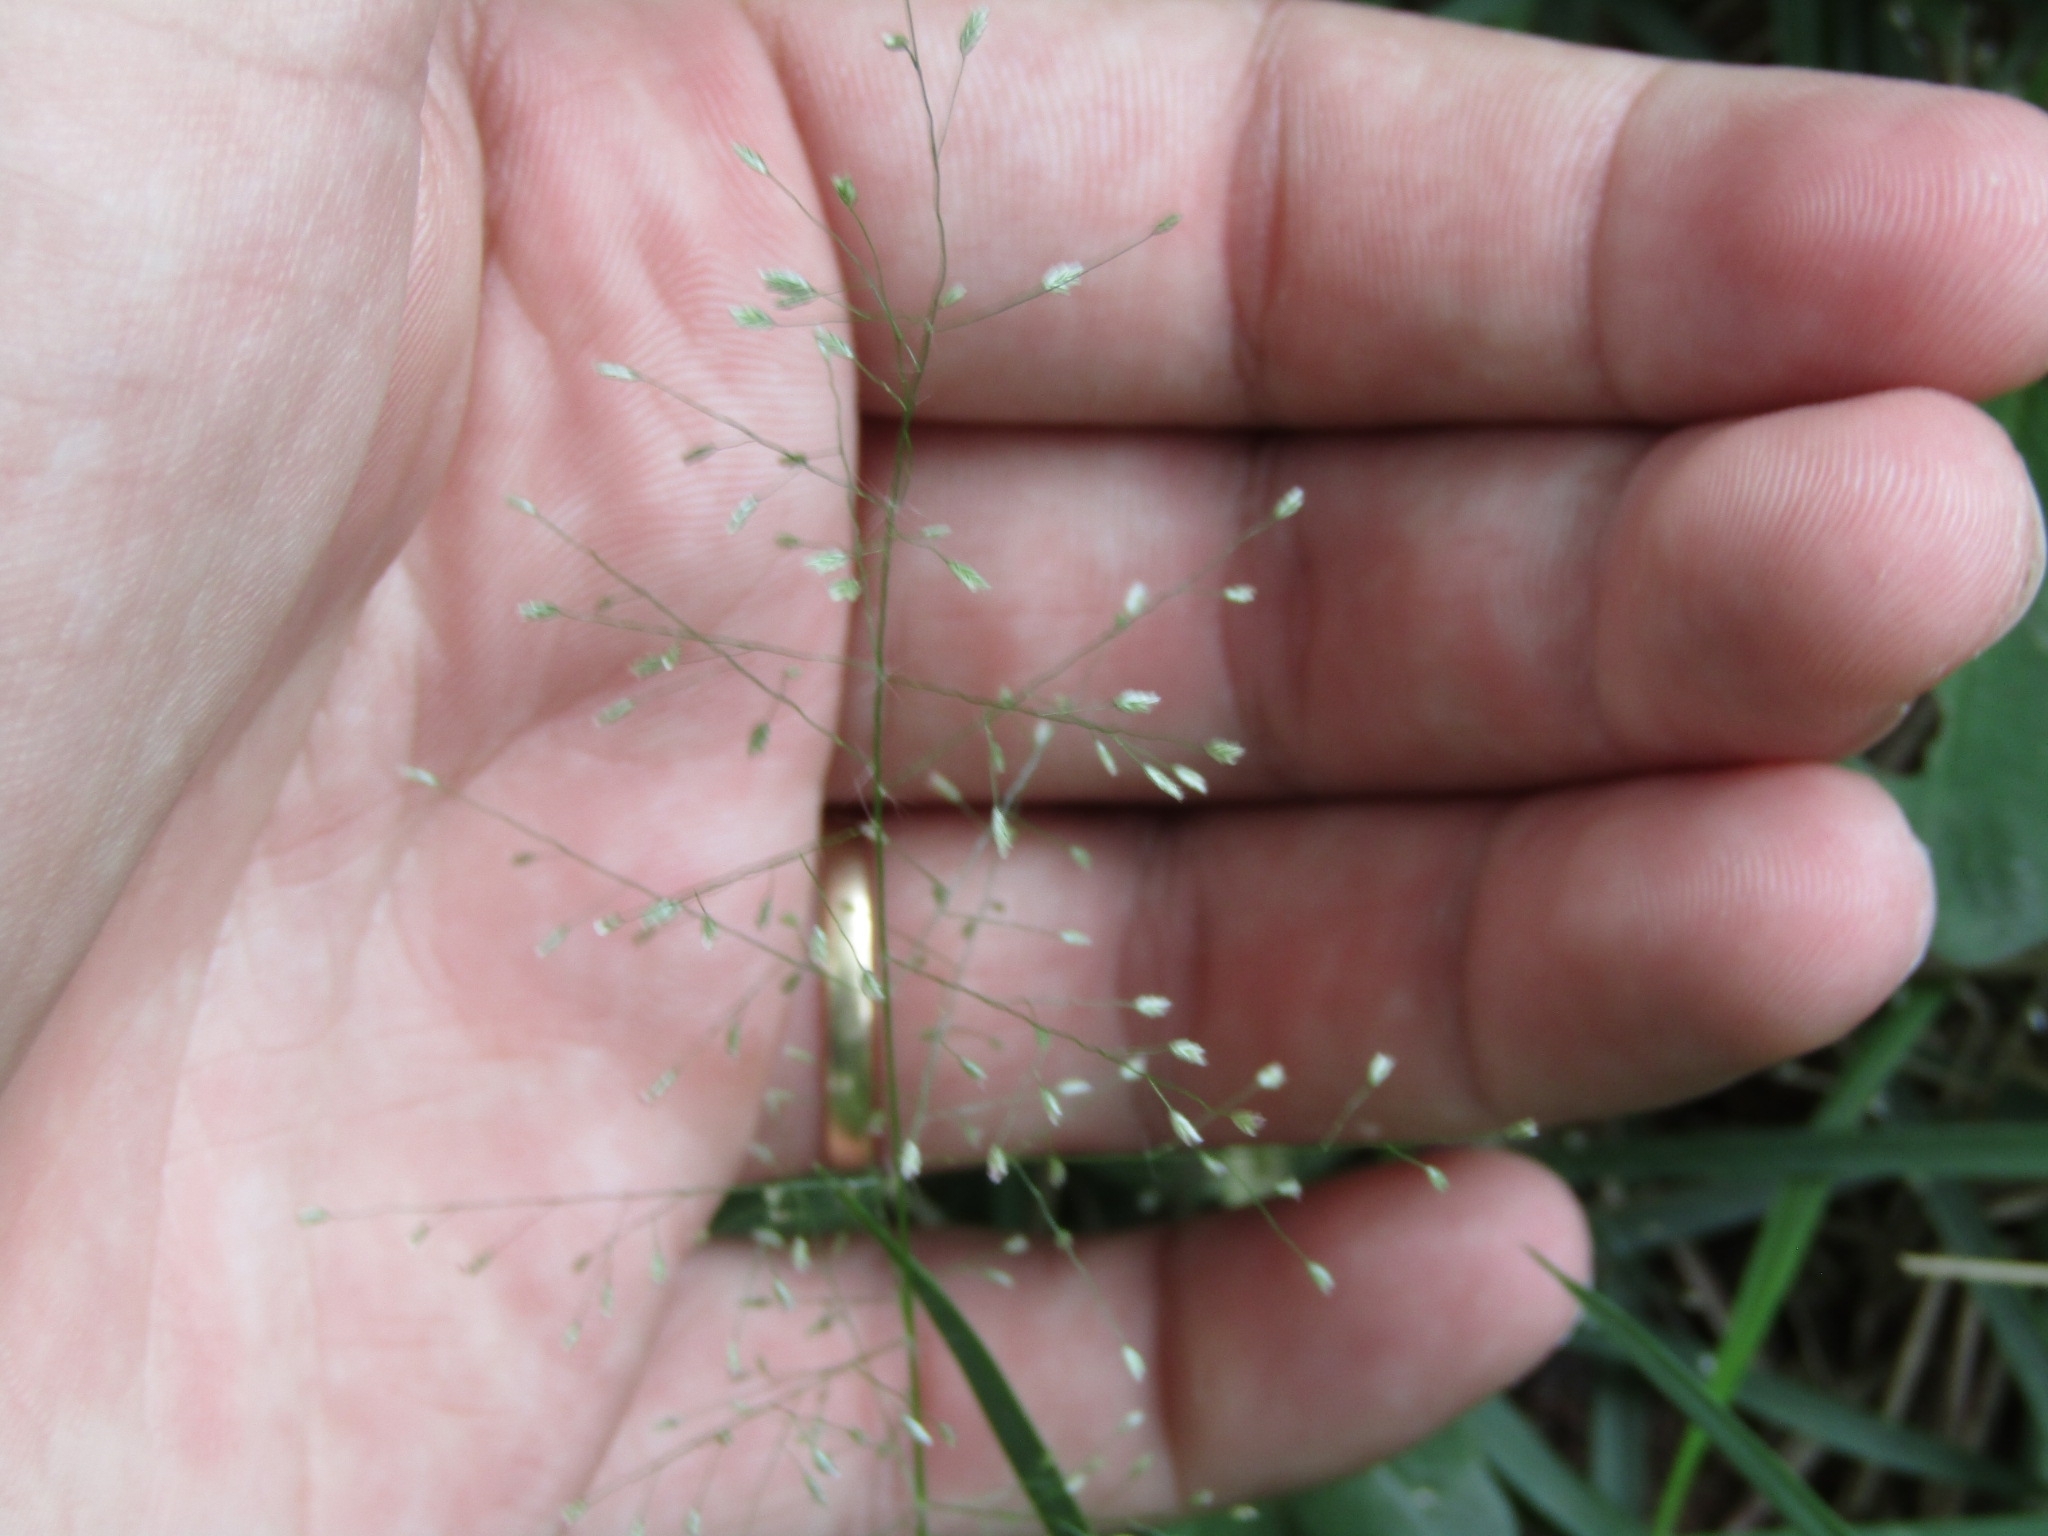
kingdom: Plantae
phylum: Tracheophyta
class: Liliopsida
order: Poales
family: Poaceae
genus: Eragrostis
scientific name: Eragrostis tenella
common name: Japanese lovegrass
